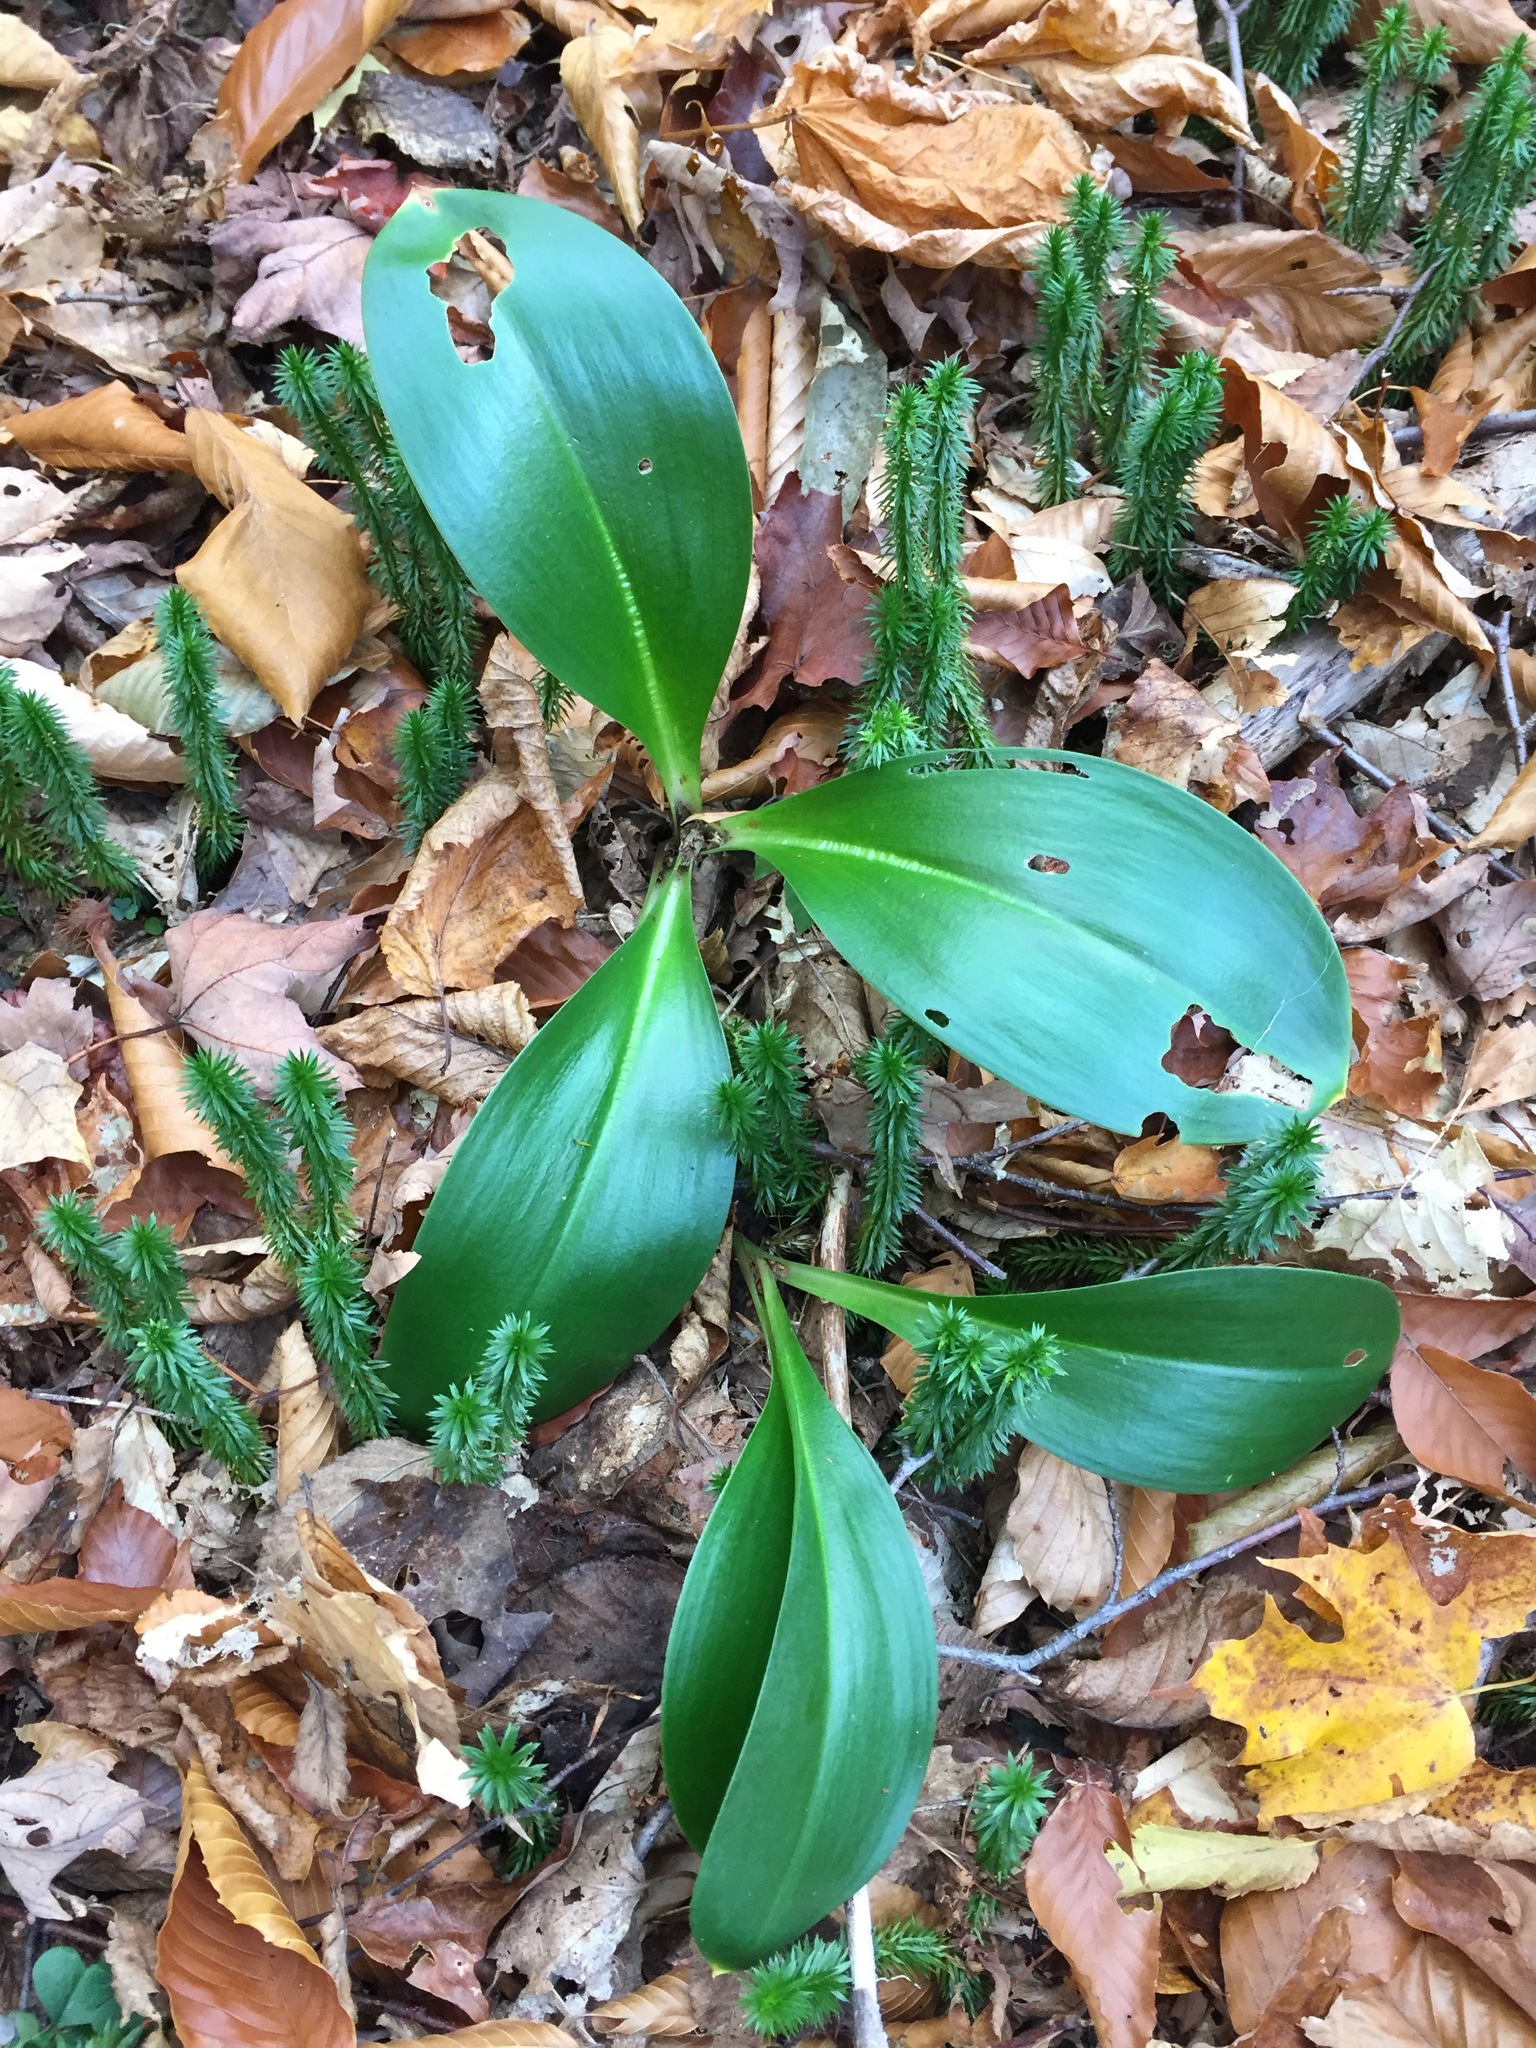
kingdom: Plantae
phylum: Tracheophyta
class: Liliopsida
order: Liliales
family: Liliaceae
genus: Clintonia
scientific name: Clintonia borealis
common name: Yellow clintonia
